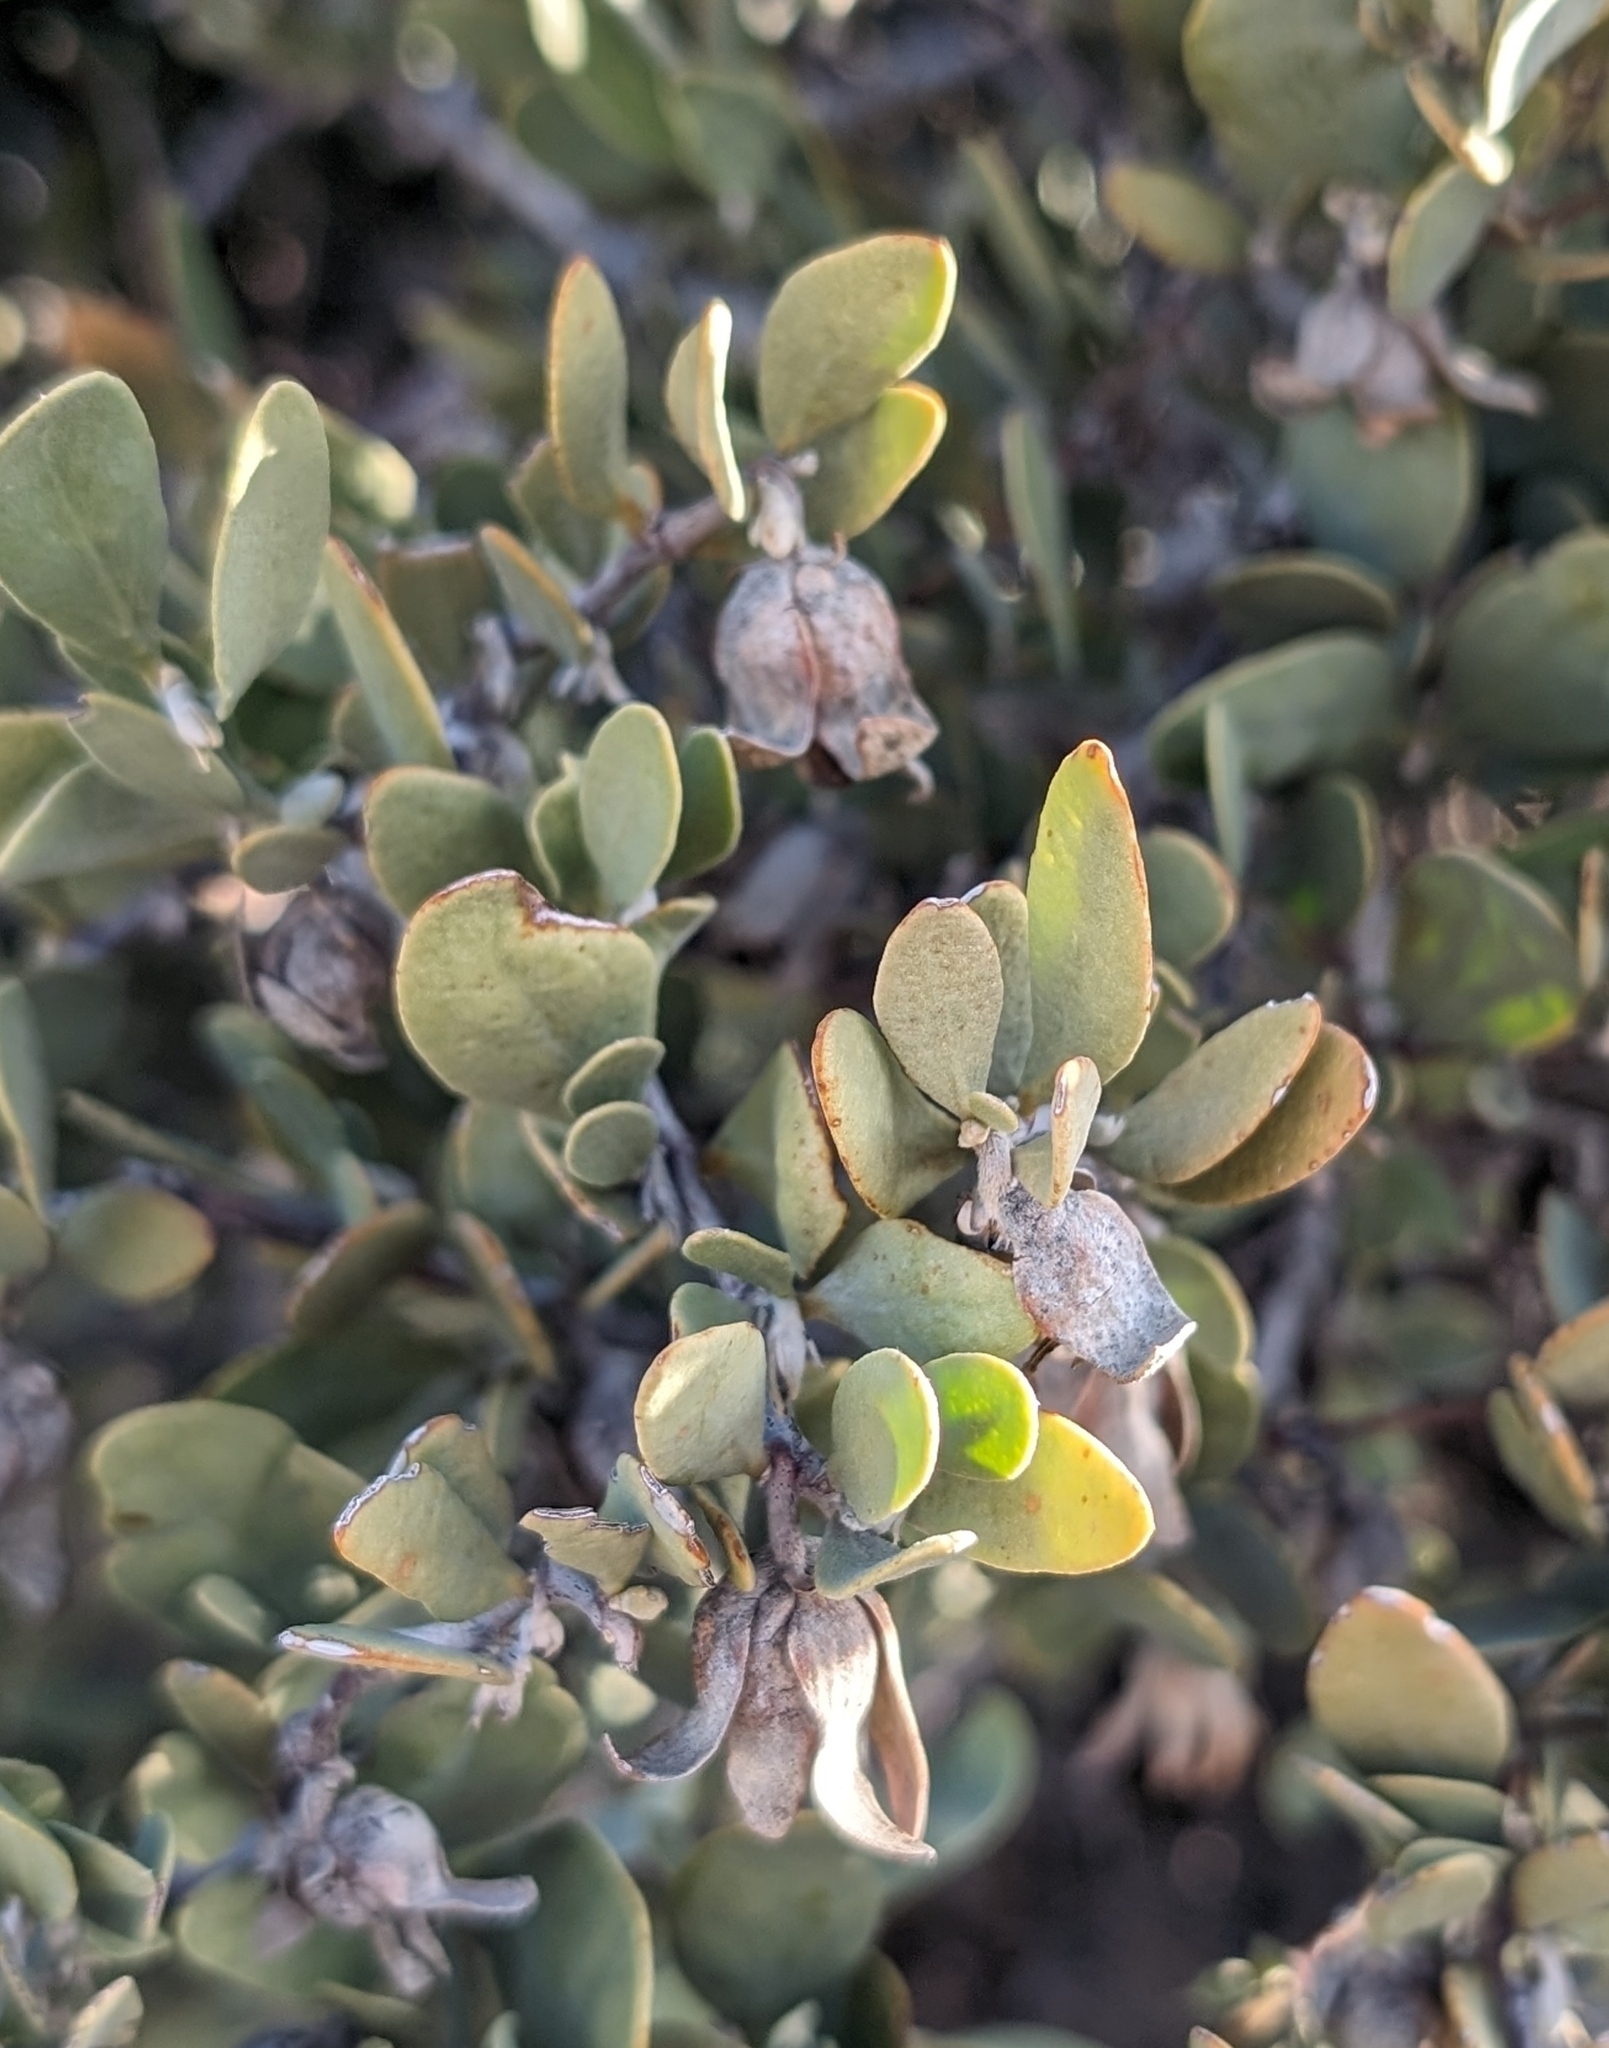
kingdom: Plantae
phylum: Tracheophyta
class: Magnoliopsida
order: Caryophyllales
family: Simmondsiaceae
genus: Simmondsia
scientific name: Simmondsia chinensis
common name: Jojoba
